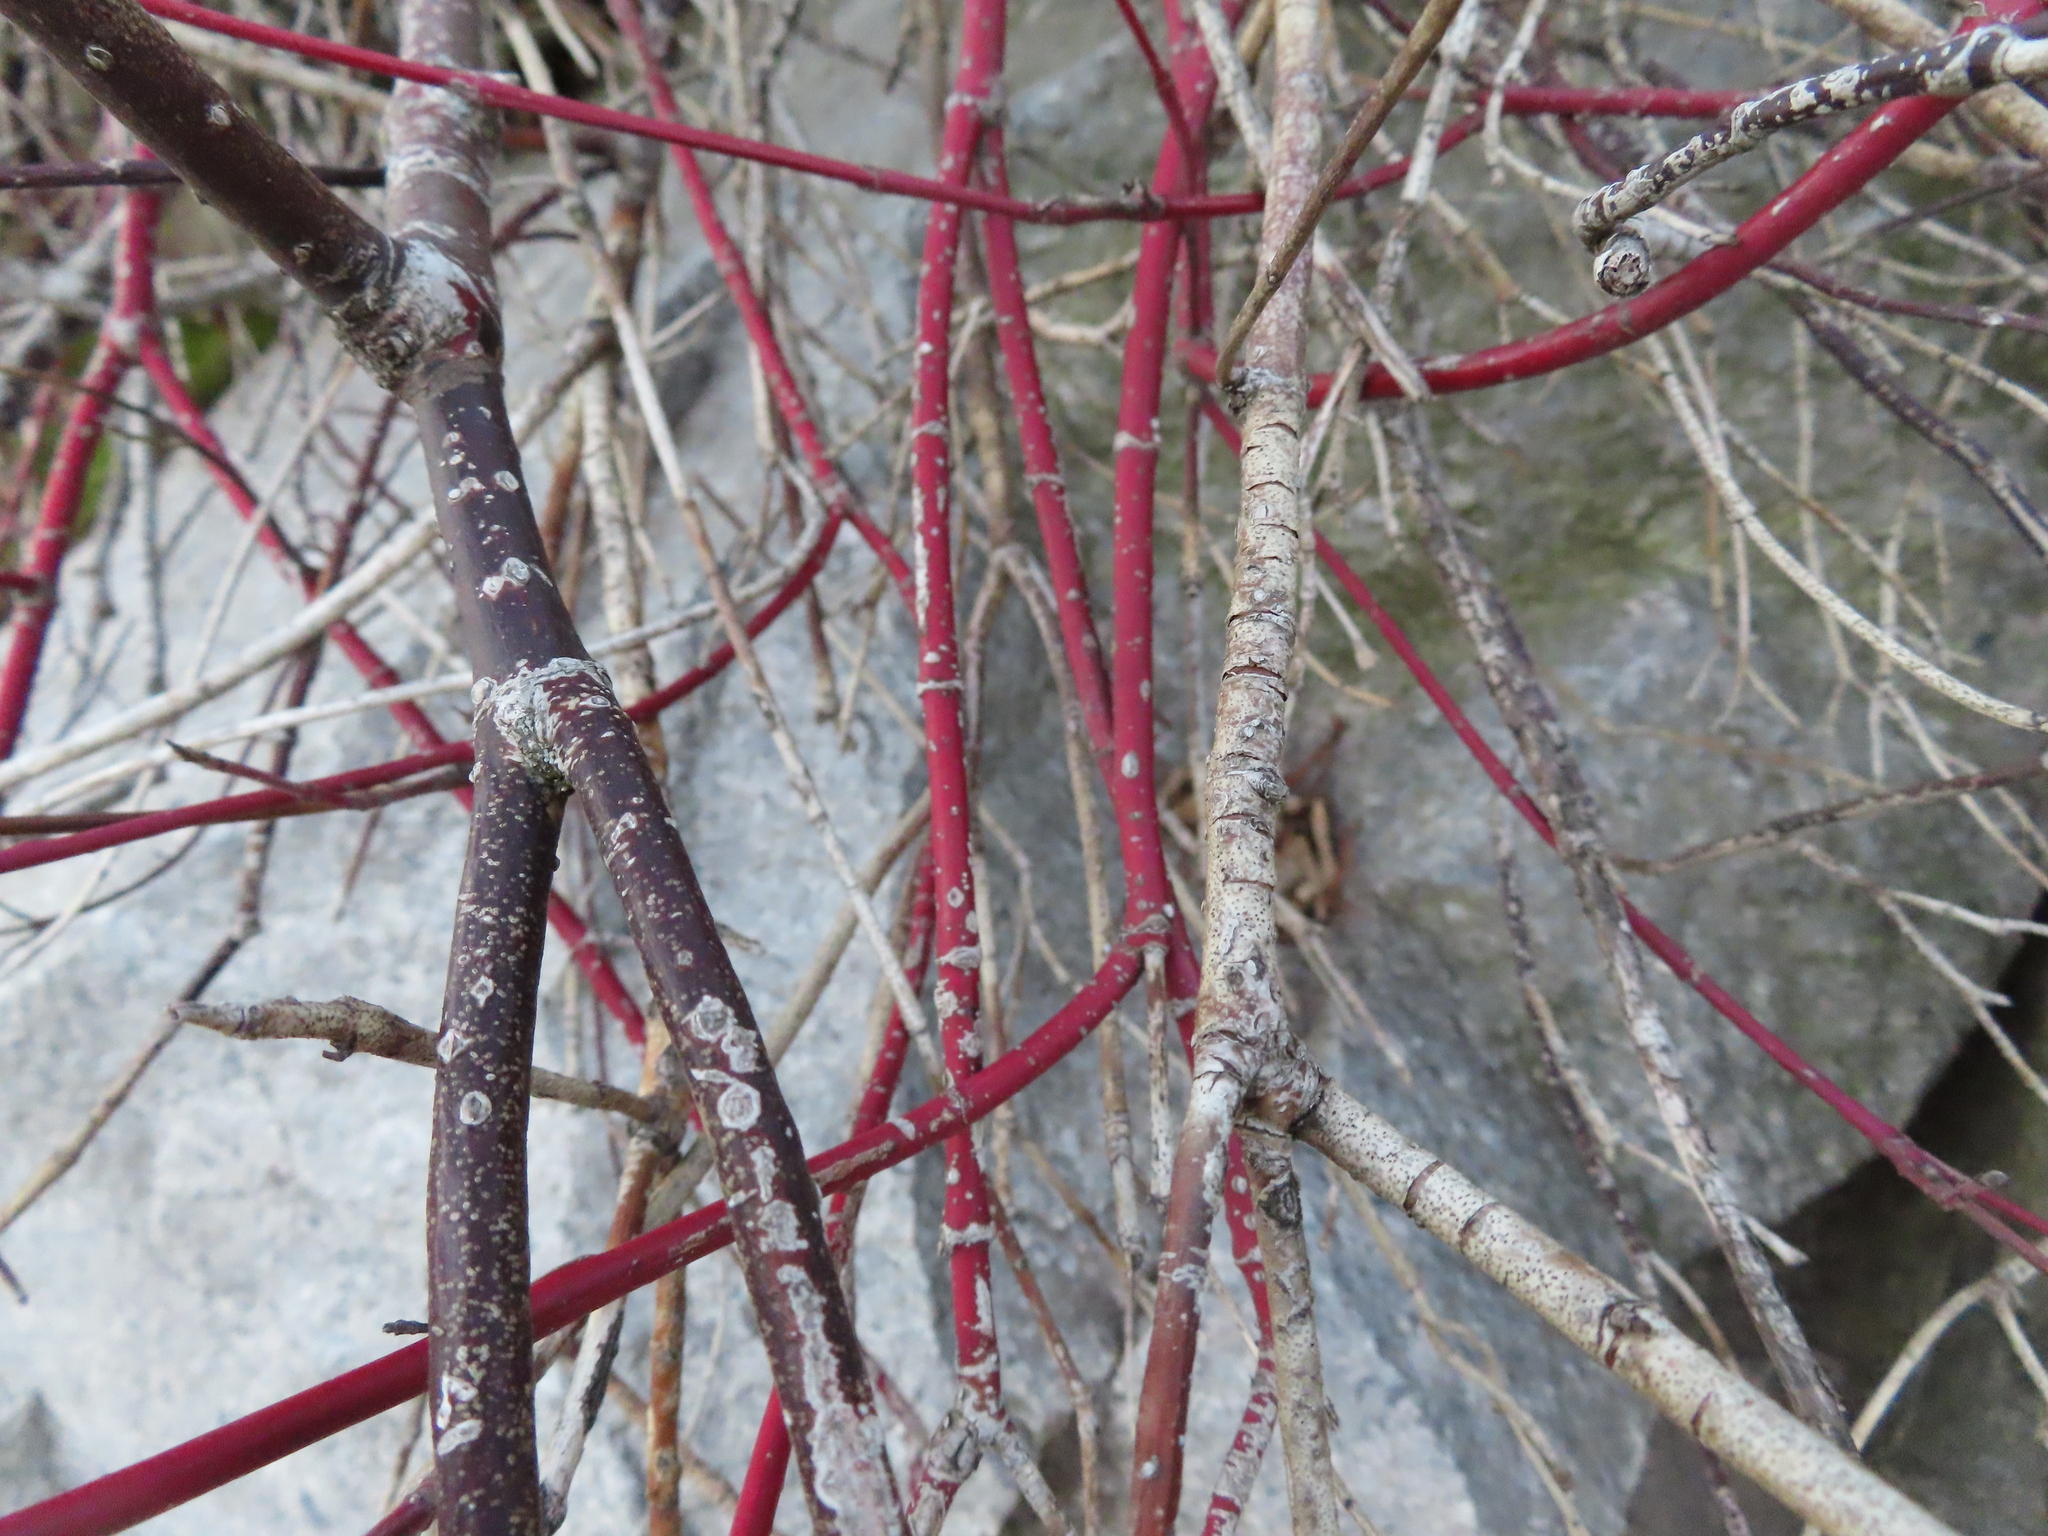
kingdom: Plantae
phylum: Tracheophyta
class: Magnoliopsida
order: Cornales
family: Cornaceae
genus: Cornus
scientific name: Cornus sericea
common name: Red-osier dogwood
